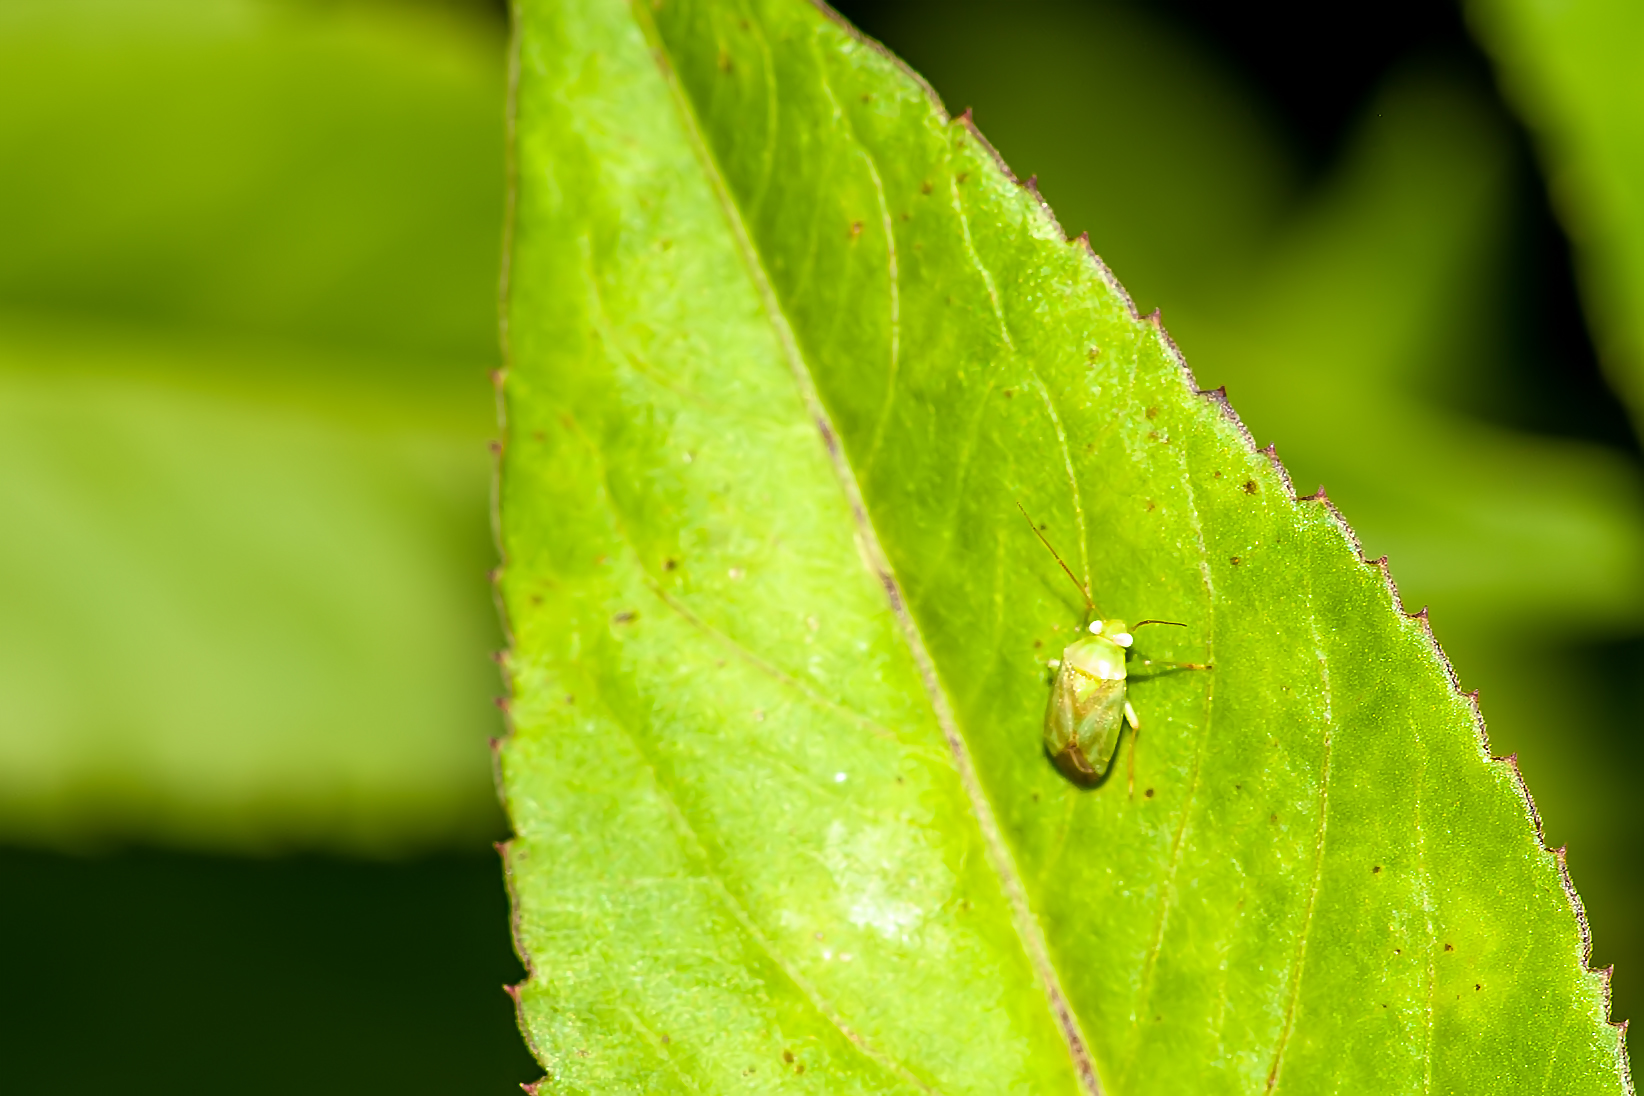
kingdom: Animalia
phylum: Arthropoda
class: Insecta
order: Hemiptera
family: Miridae
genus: Taylorilygus
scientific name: Taylorilygus apicalis
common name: Plant bug
